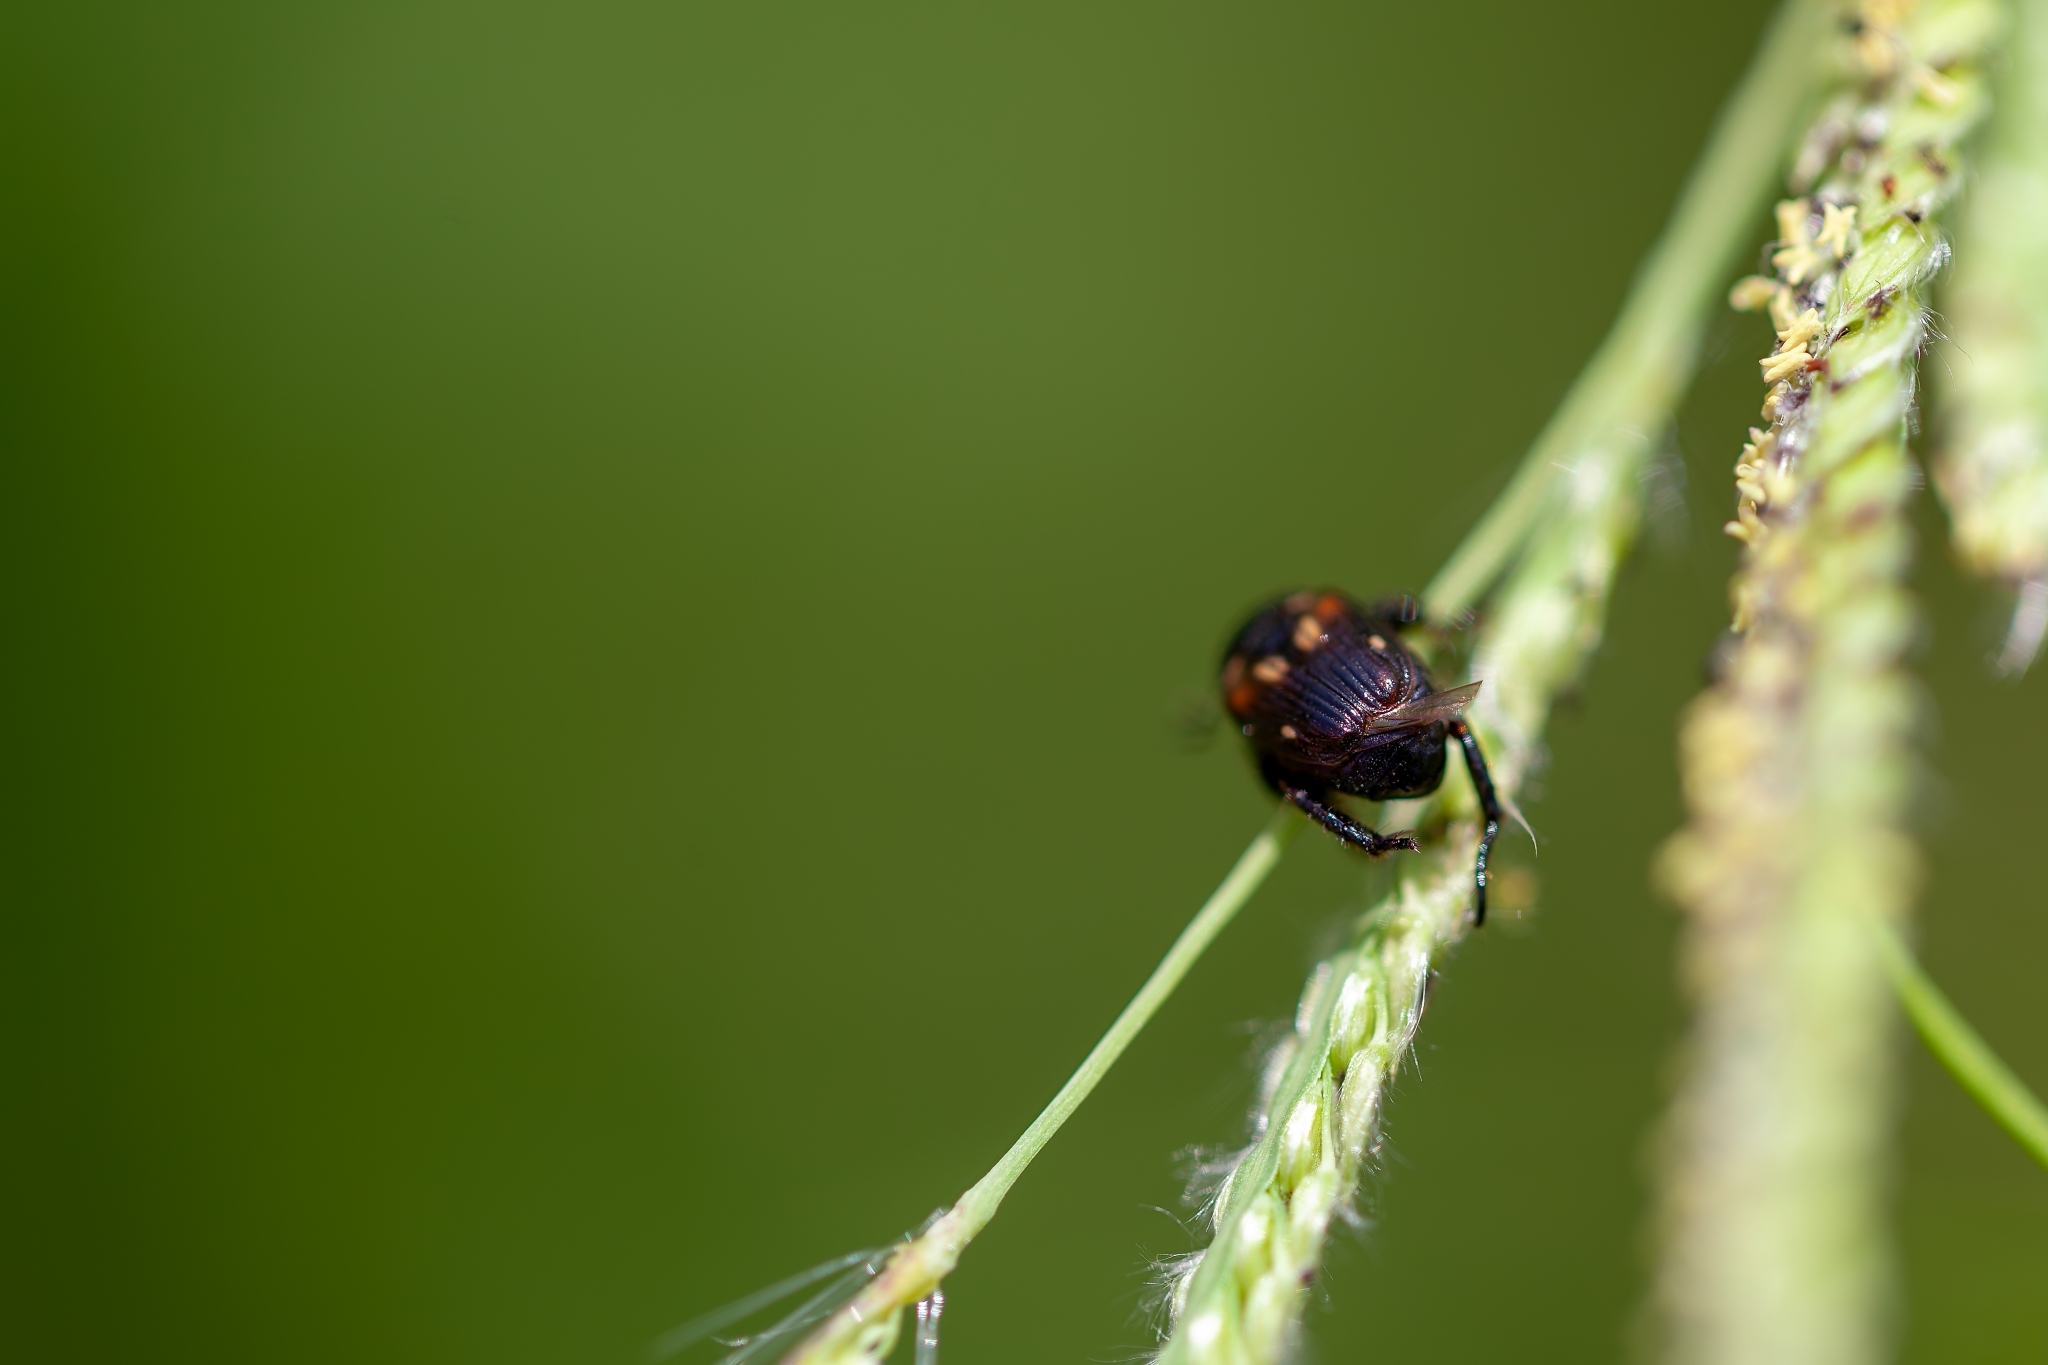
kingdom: Animalia
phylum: Arthropoda
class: Insecta
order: Coleoptera
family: Scarabaeidae
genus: Strigoderma
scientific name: Strigoderma pygmaea
